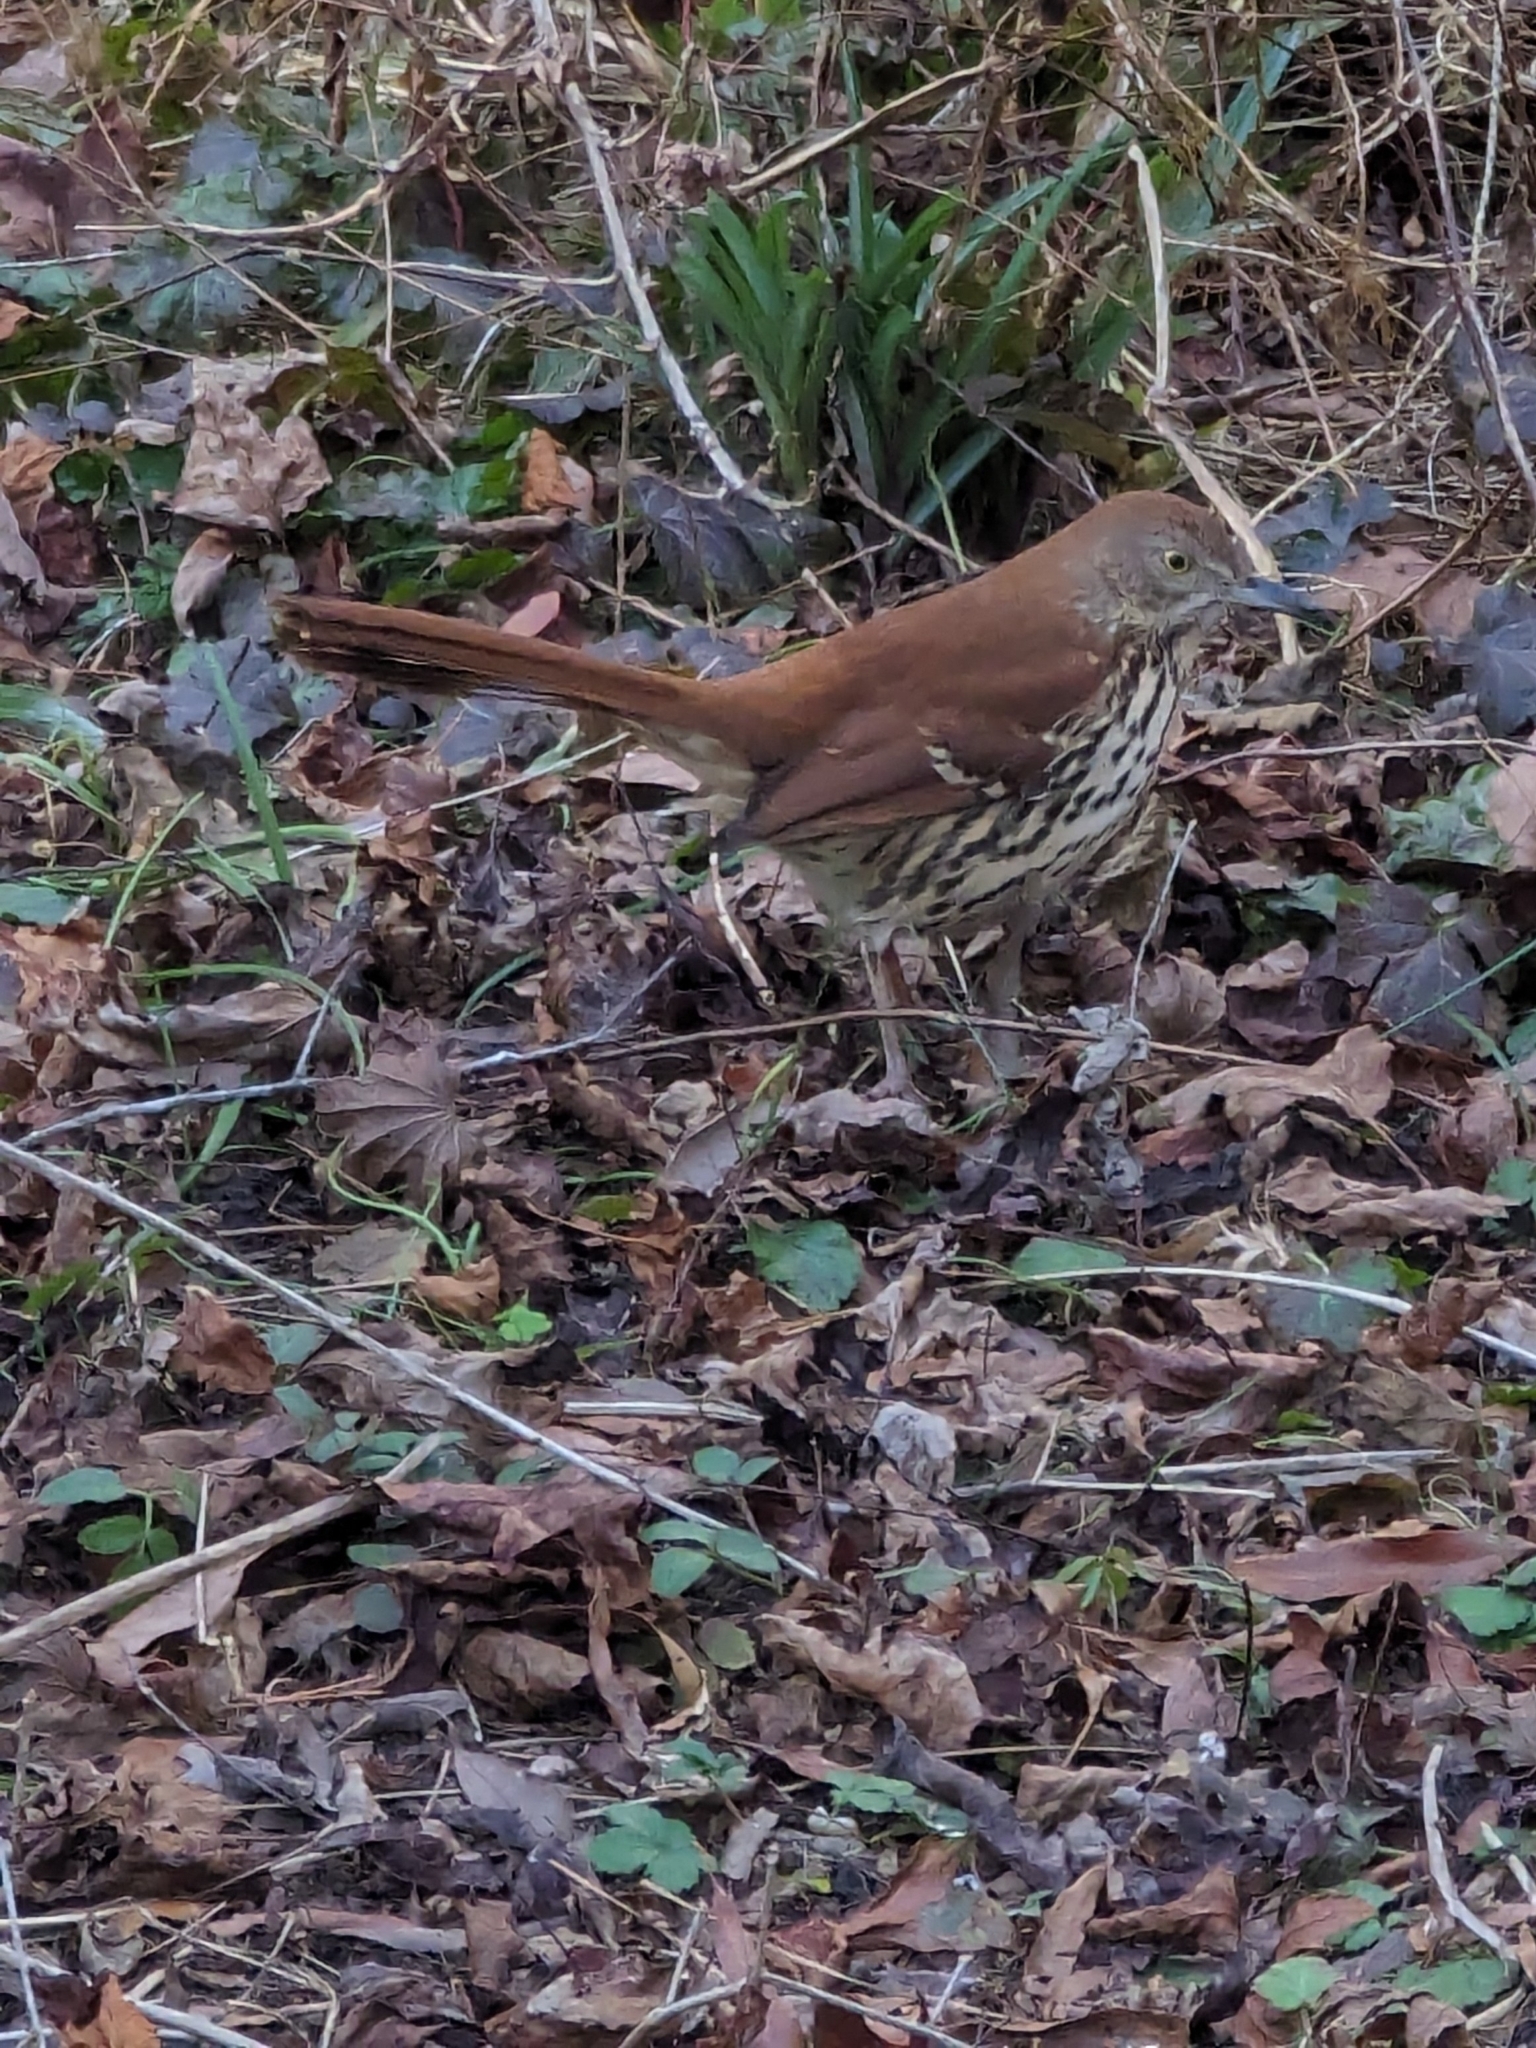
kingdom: Animalia
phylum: Chordata
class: Aves
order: Passeriformes
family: Mimidae
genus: Toxostoma
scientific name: Toxostoma rufum
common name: Brown thrasher
